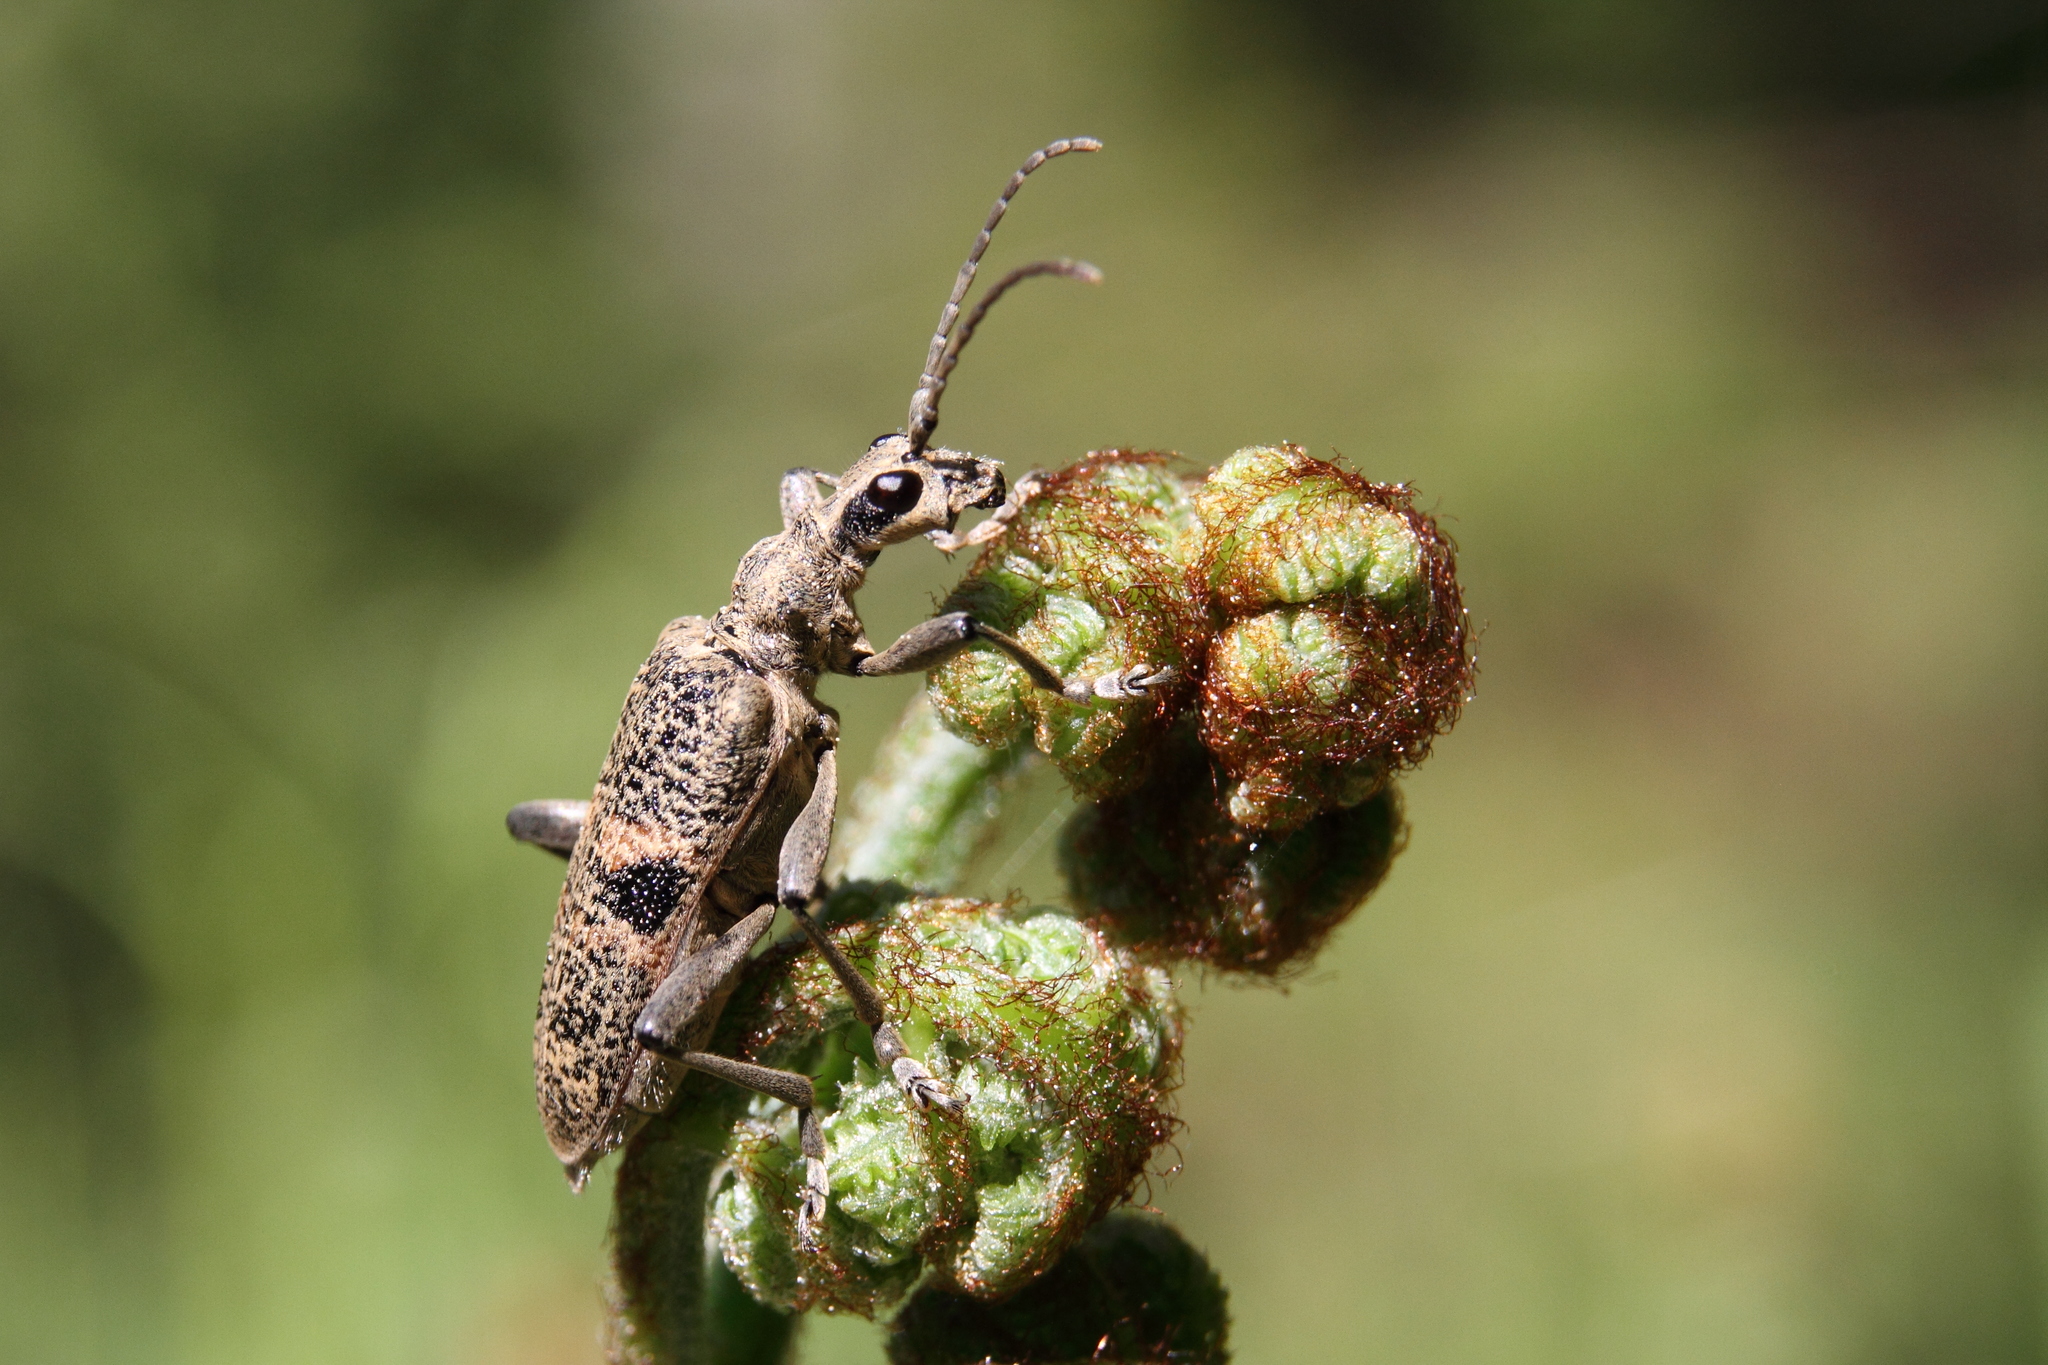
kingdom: Animalia
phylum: Arthropoda
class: Insecta
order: Coleoptera
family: Cerambycidae
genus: Rhagium
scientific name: Rhagium mordax
